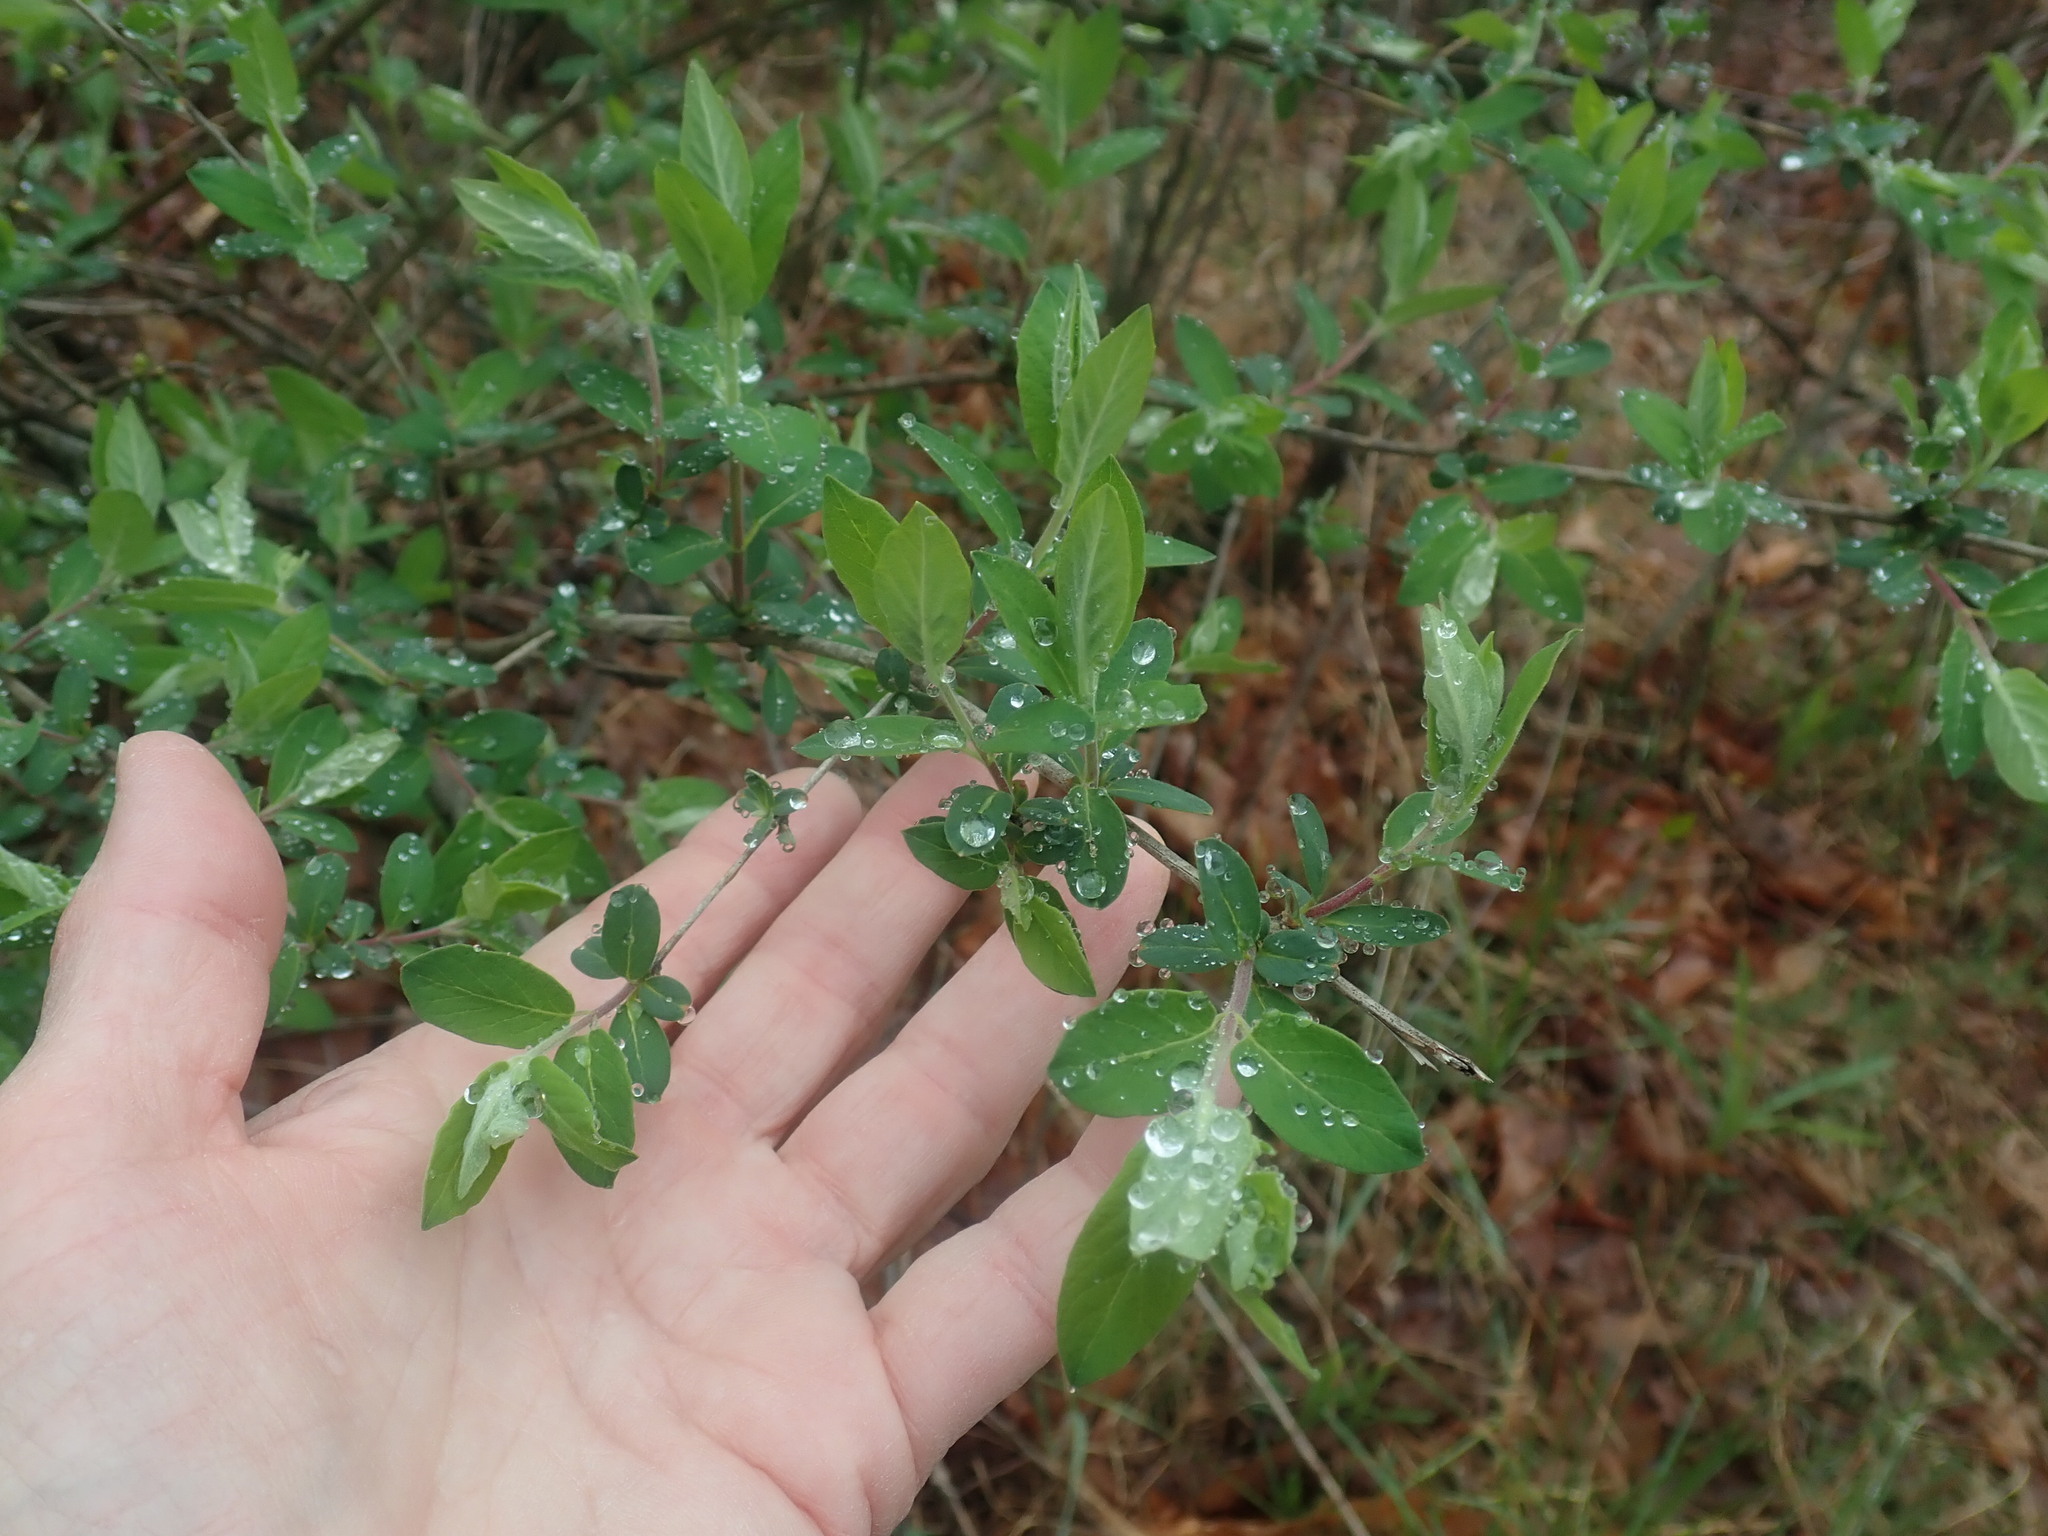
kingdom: Plantae
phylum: Tracheophyta
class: Magnoliopsida
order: Dipsacales
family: Caprifoliaceae
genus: Lonicera
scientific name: Lonicera
